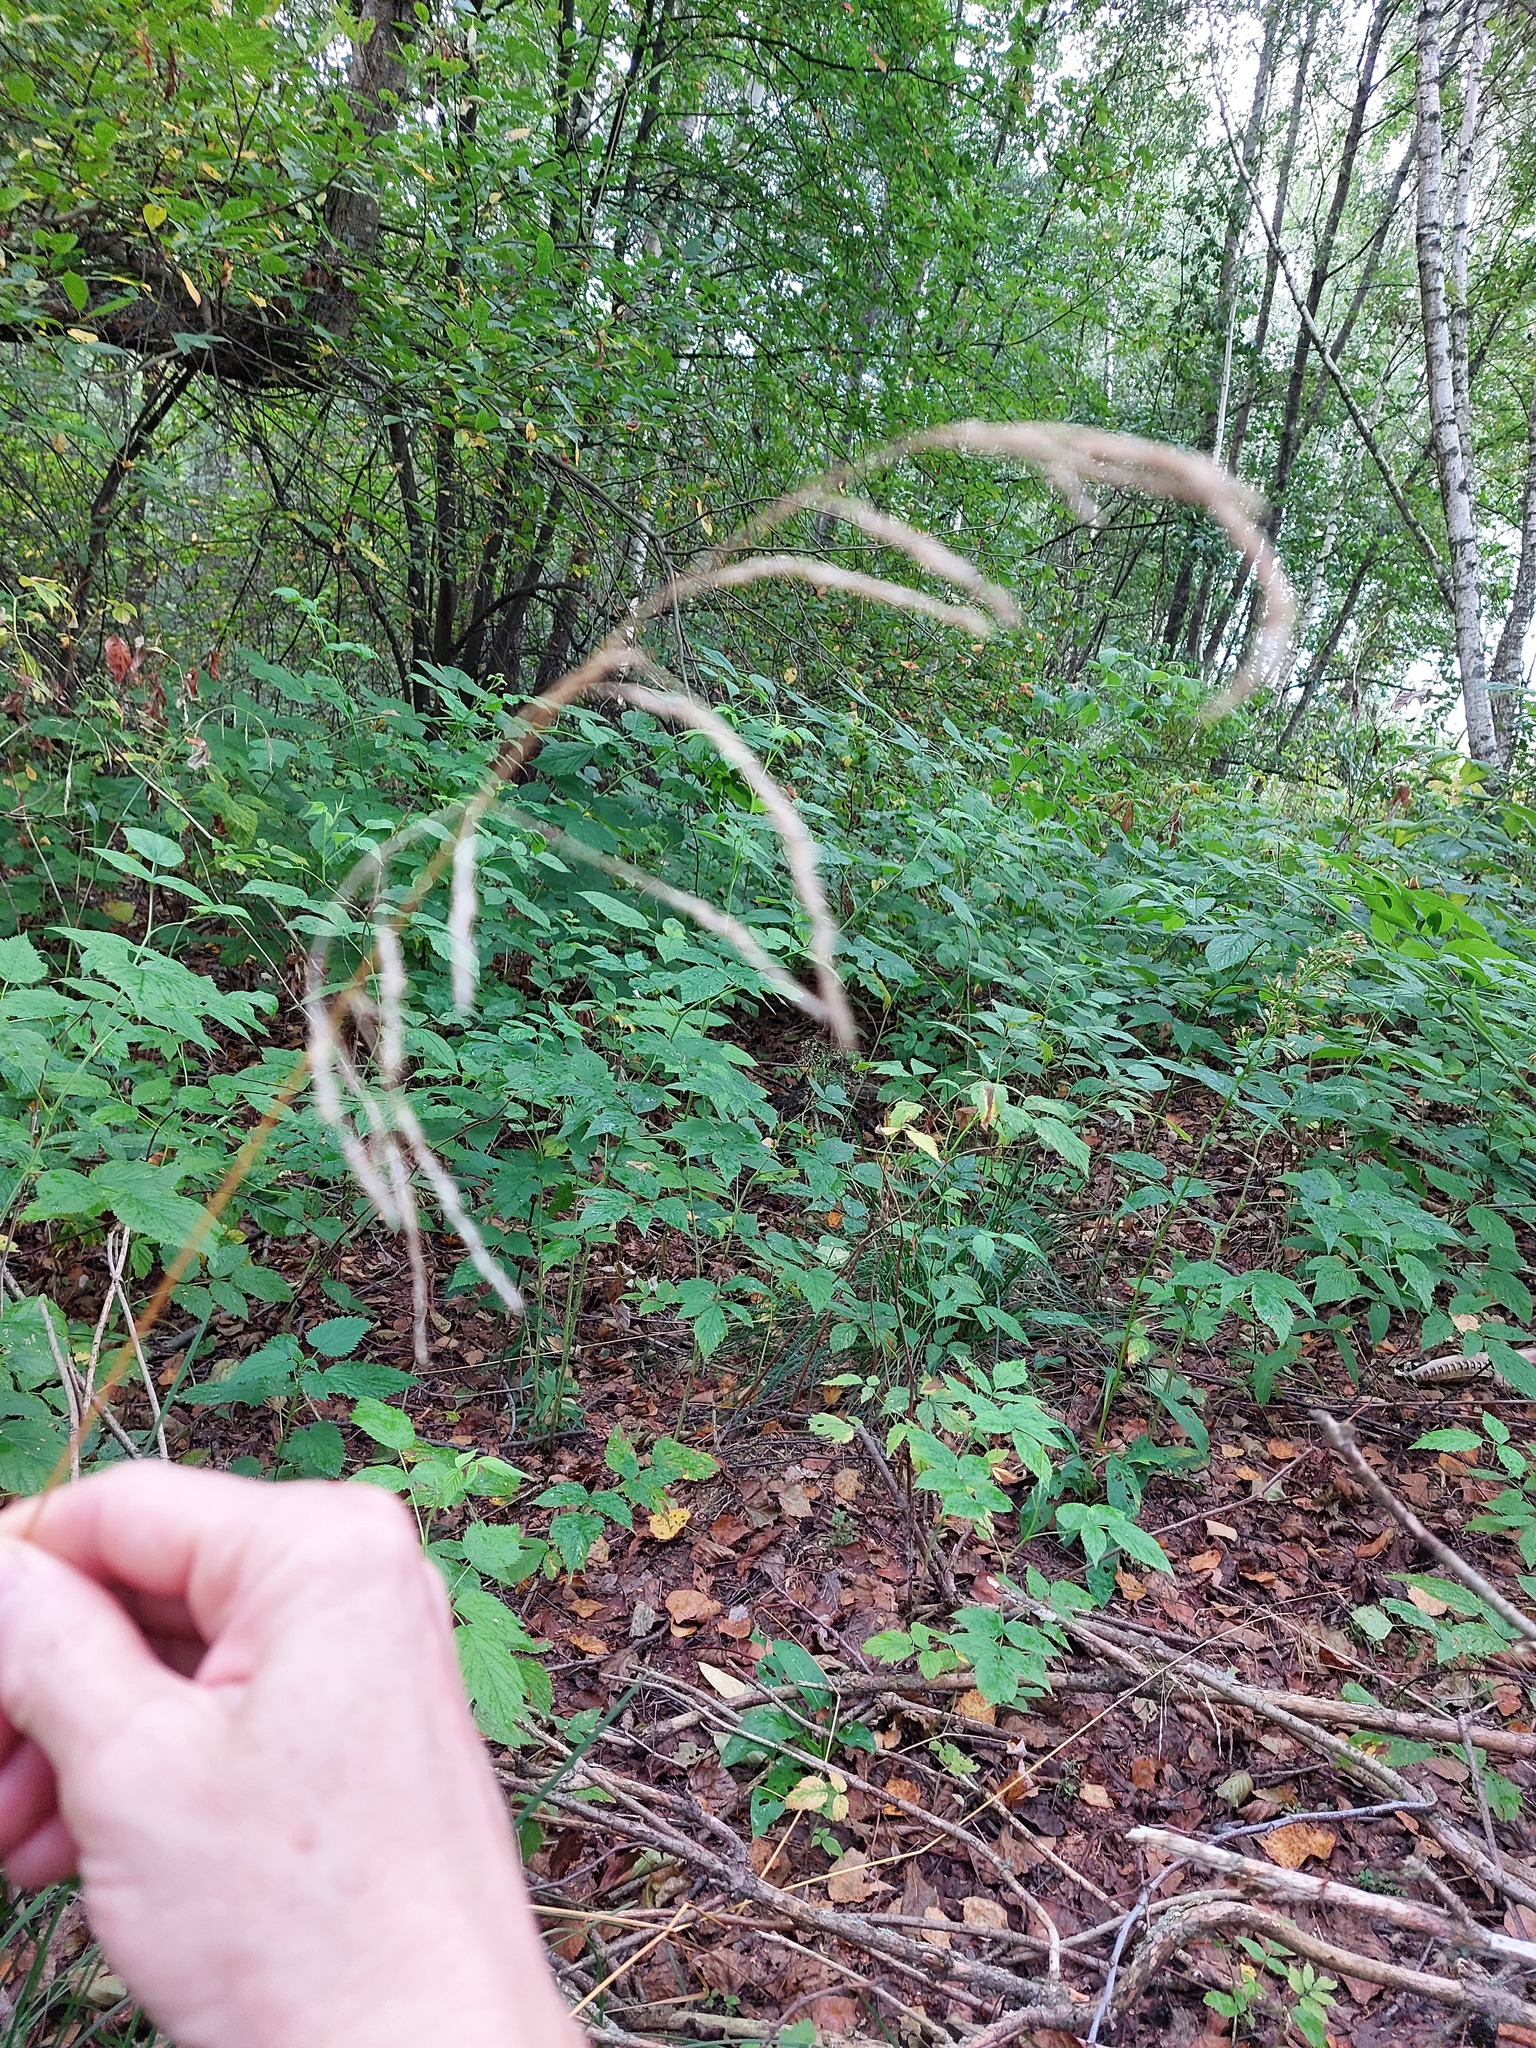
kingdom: Plantae
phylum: Tracheophyta
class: Liliopsida
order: Poales
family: Poaceae
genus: Deschampsia
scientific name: Deschampsia cespitosa
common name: Tufted hair-grass
